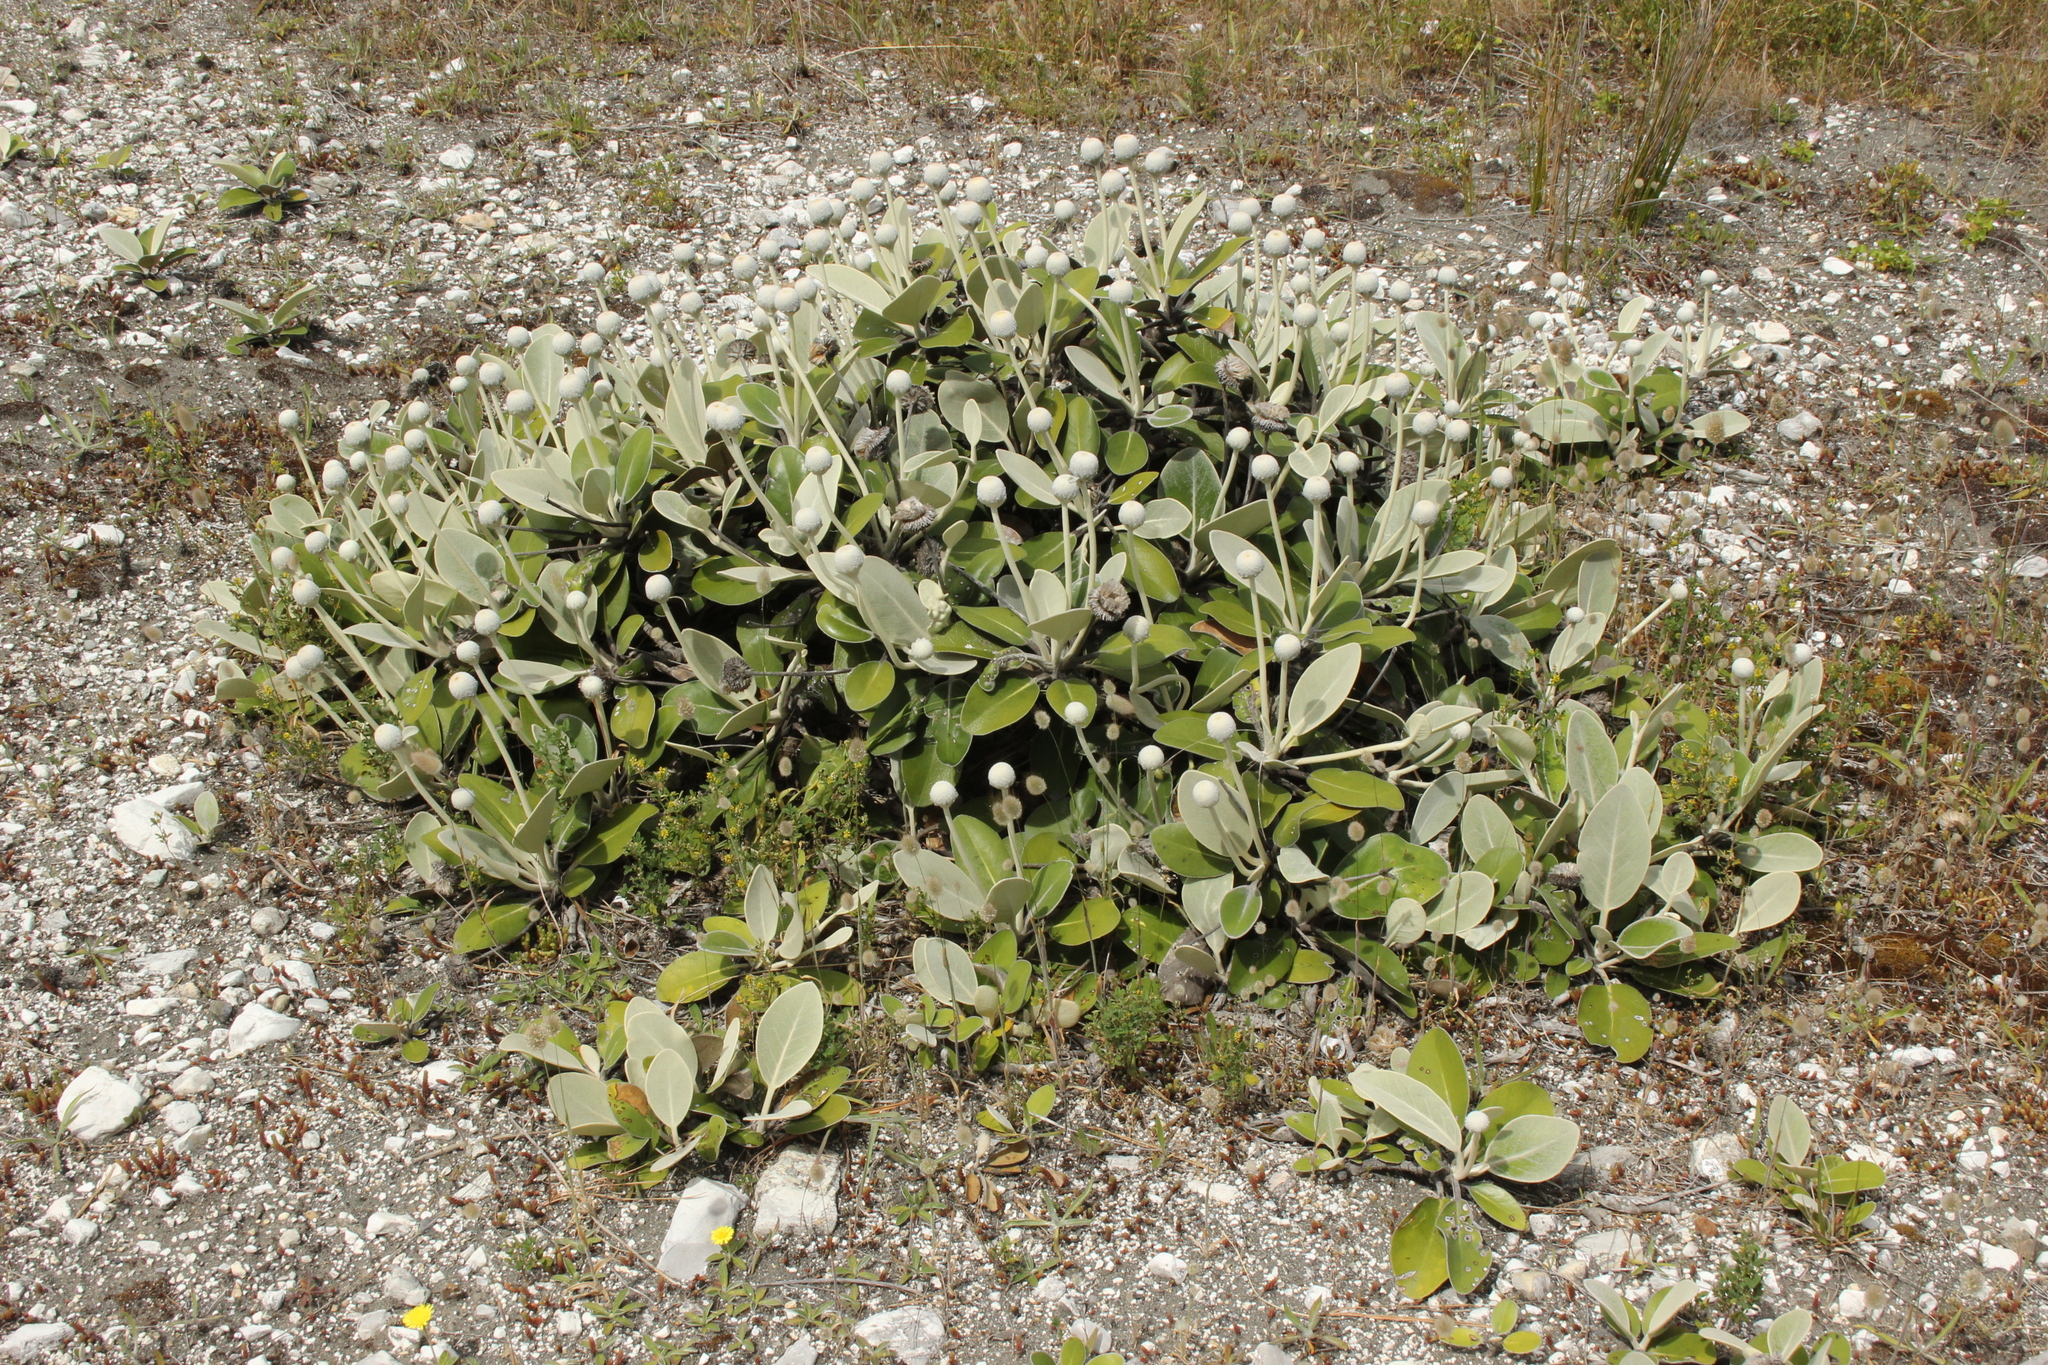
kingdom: Plantae
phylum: Tracheophyta
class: Magnoliopsida
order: Asterales
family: Asteraceae
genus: Pachystegia
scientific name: Pachystegia insignis
